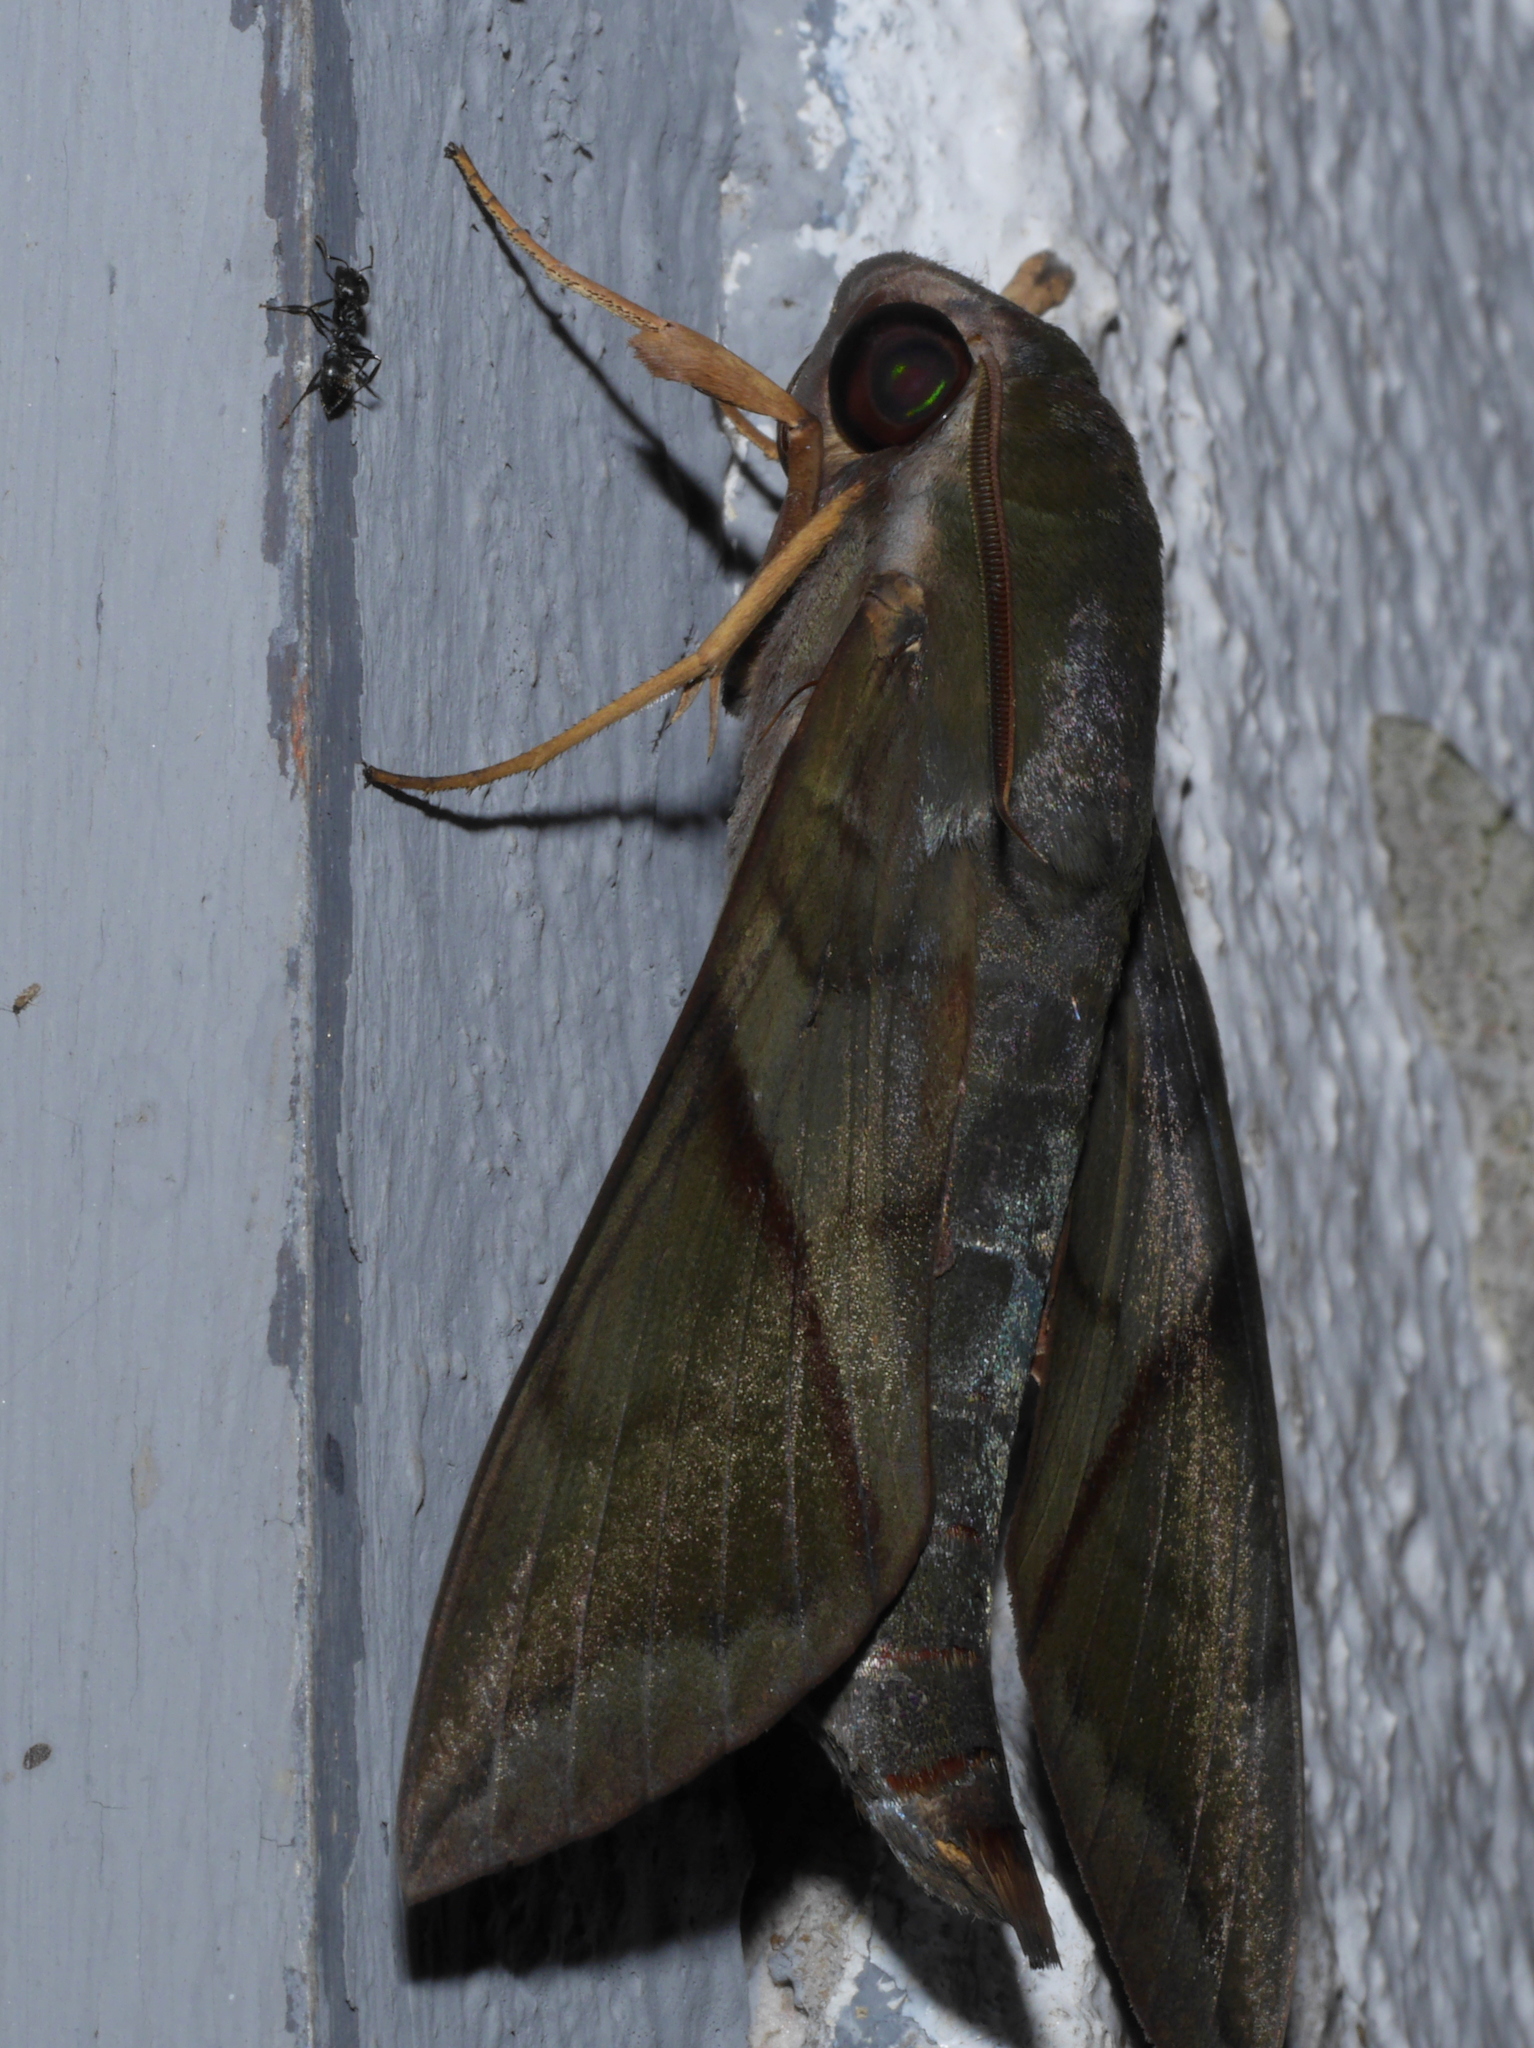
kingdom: Animalia
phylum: Arthropoda
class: Insecta
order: Lepidoptera
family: Sphingidae
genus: Nephele
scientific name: Nephele aequivalens
